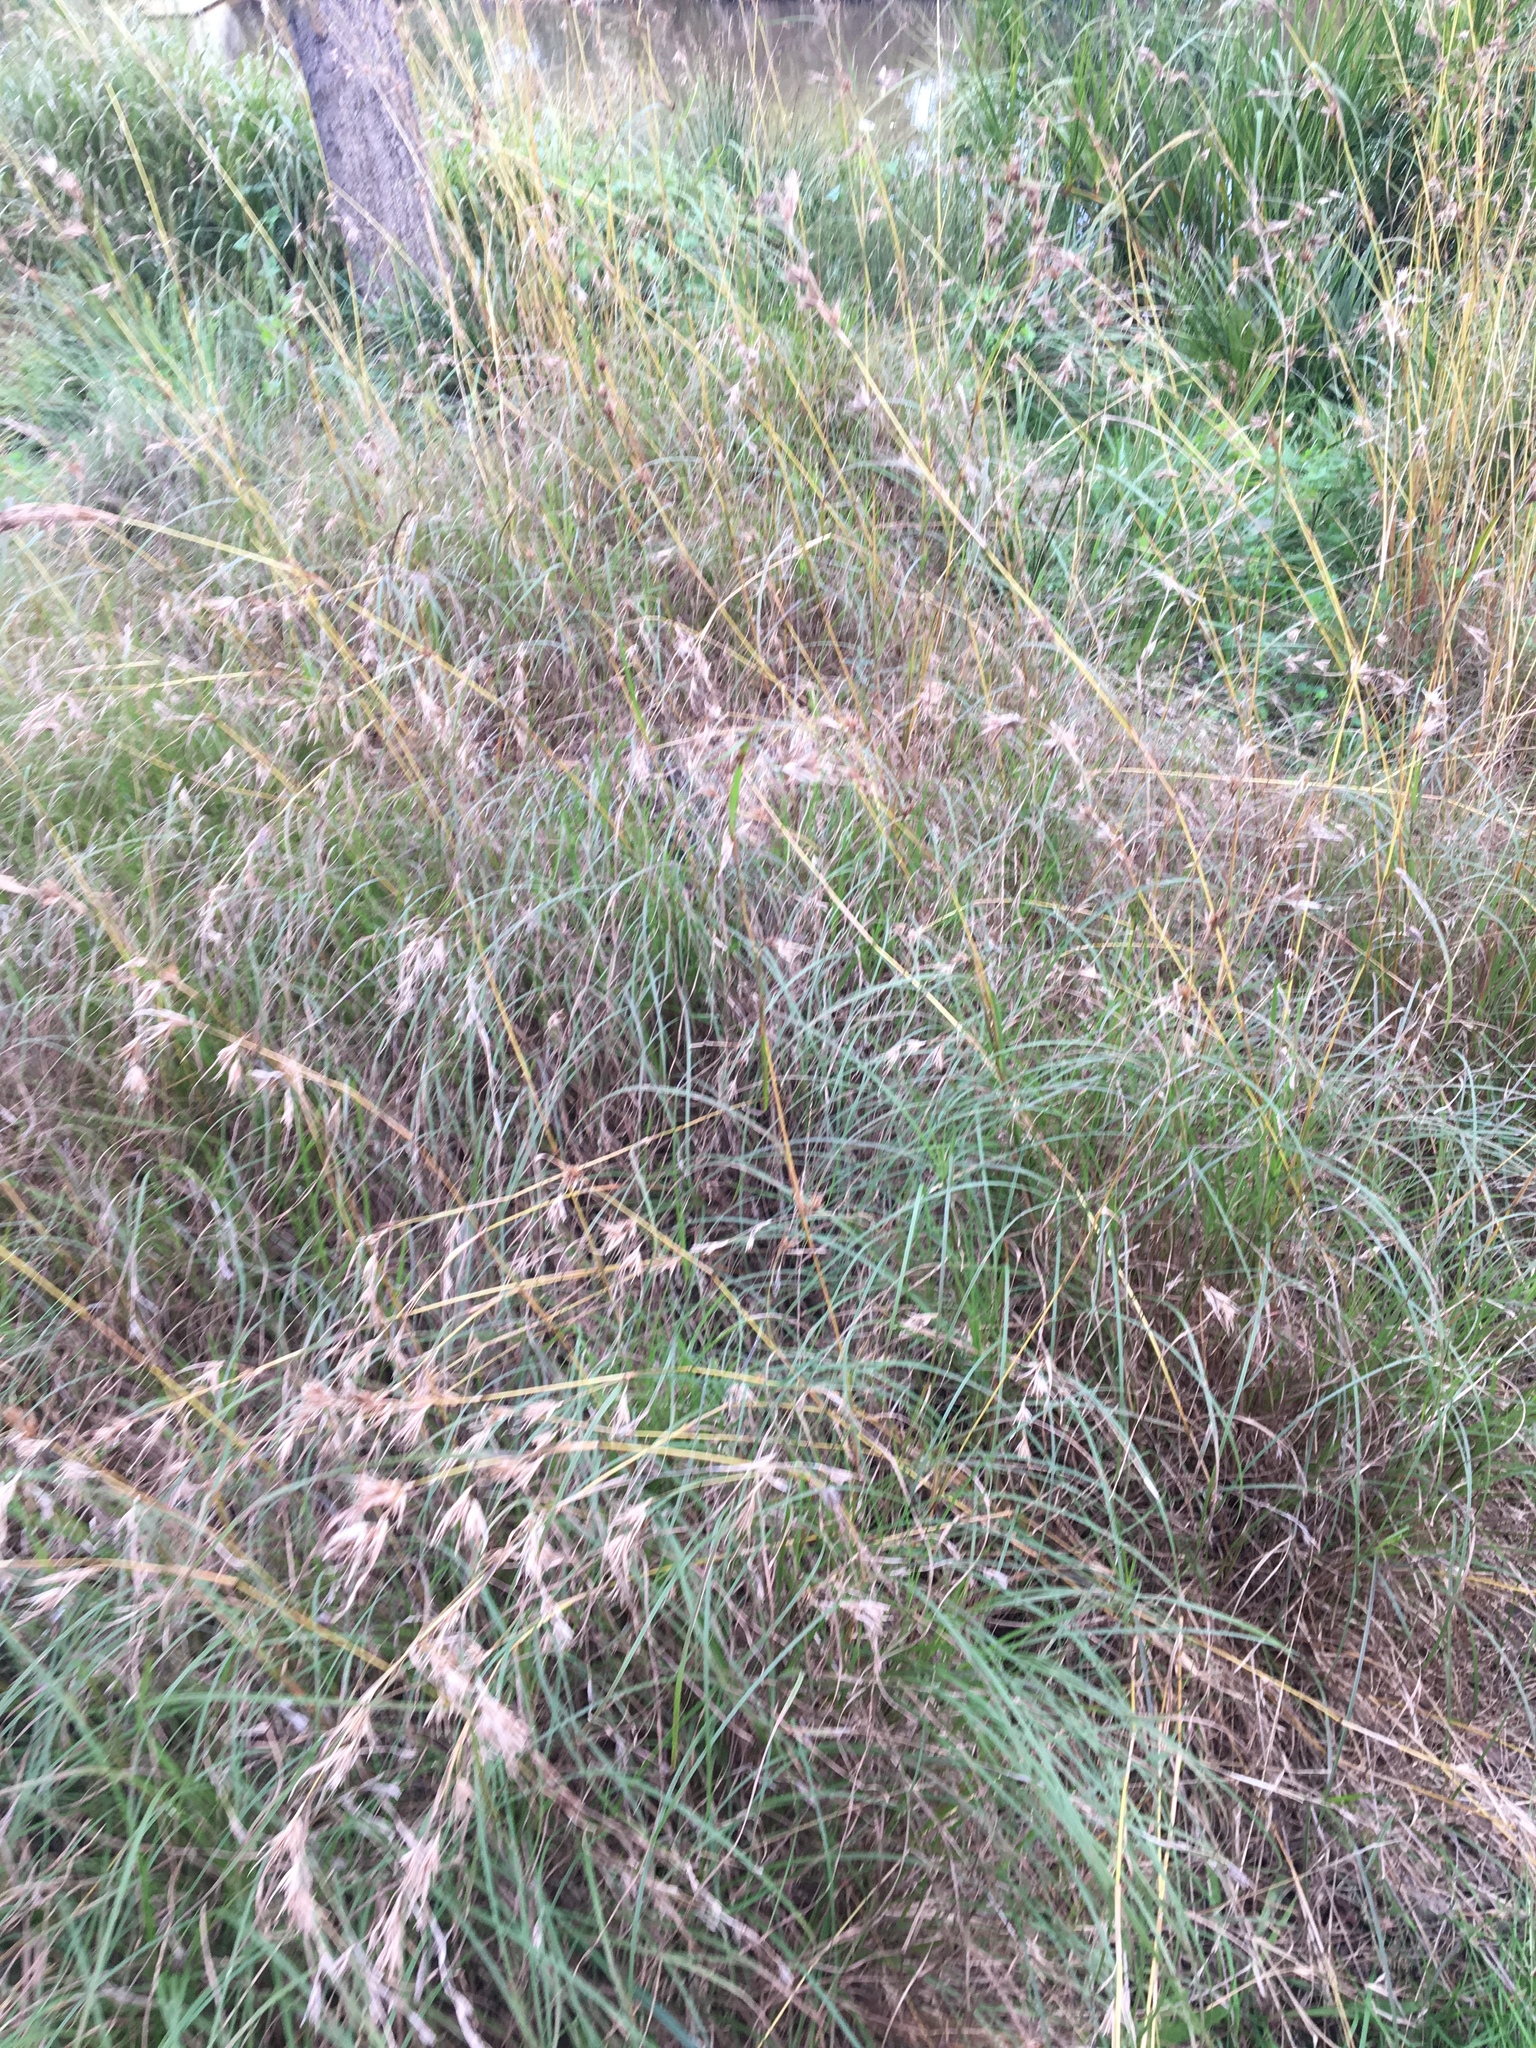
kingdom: Plantae
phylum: Tracheophyta
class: Liliopsida
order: Poales
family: Poaceae
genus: Themeda
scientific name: Themeda triandra
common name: Kangaroo grass
